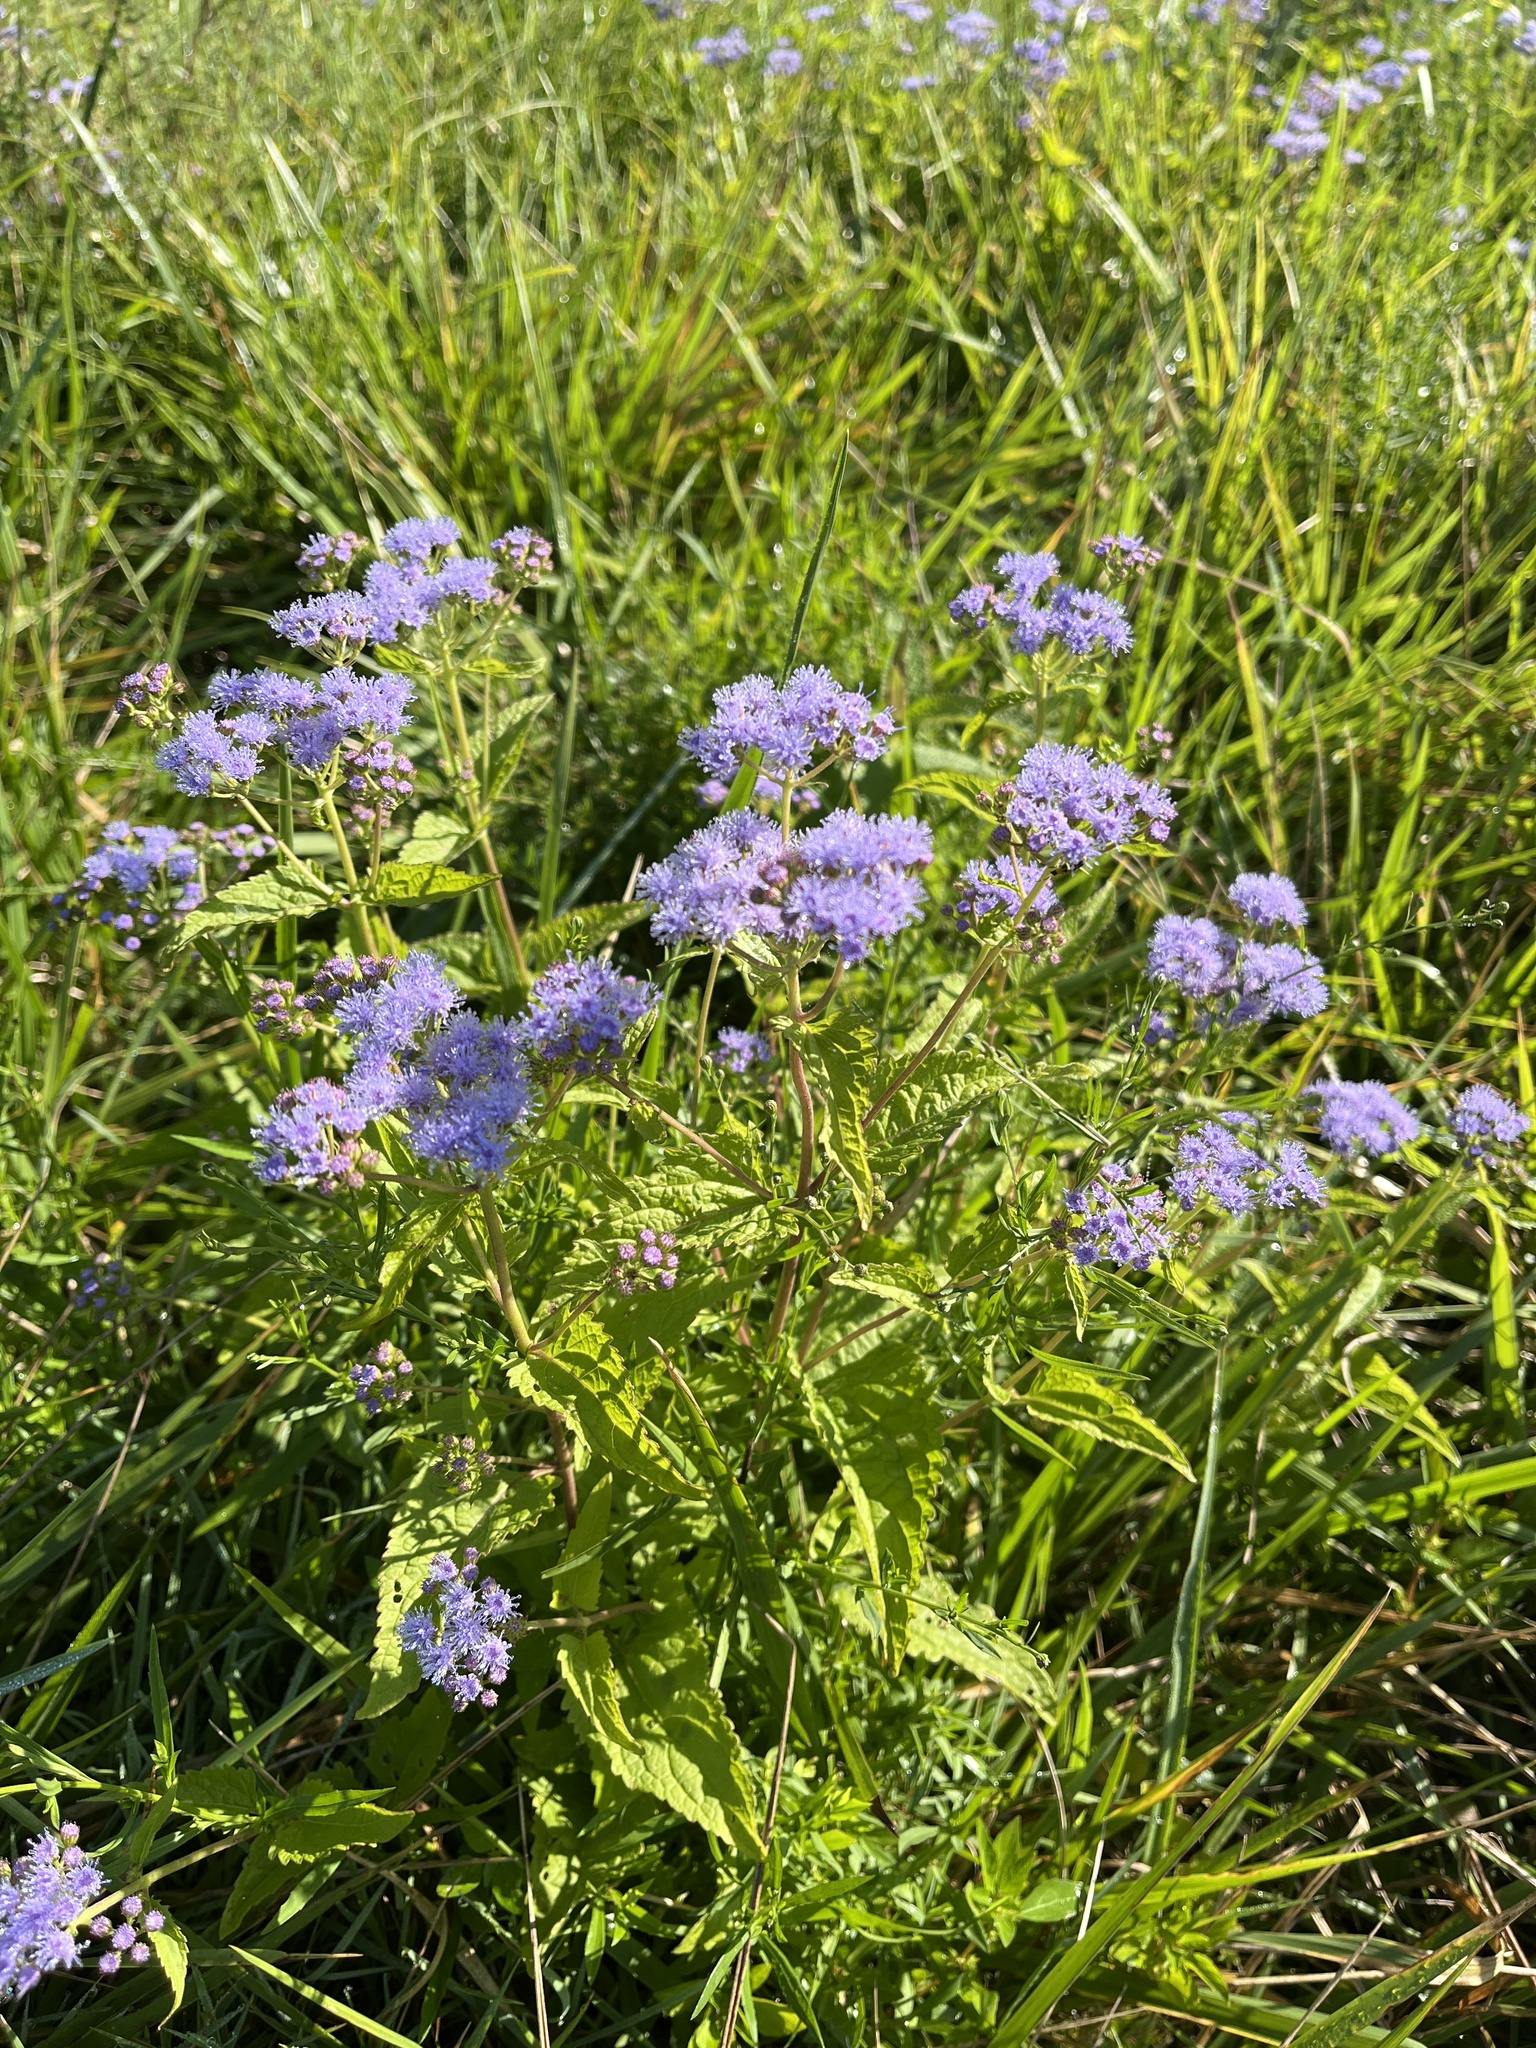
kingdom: Plantae
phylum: Tracheophyta
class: Magnoliopsida
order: Asterales
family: Asteraceae
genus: Conoclinium
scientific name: Conoclinium coelestinum
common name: Blue mistflower
